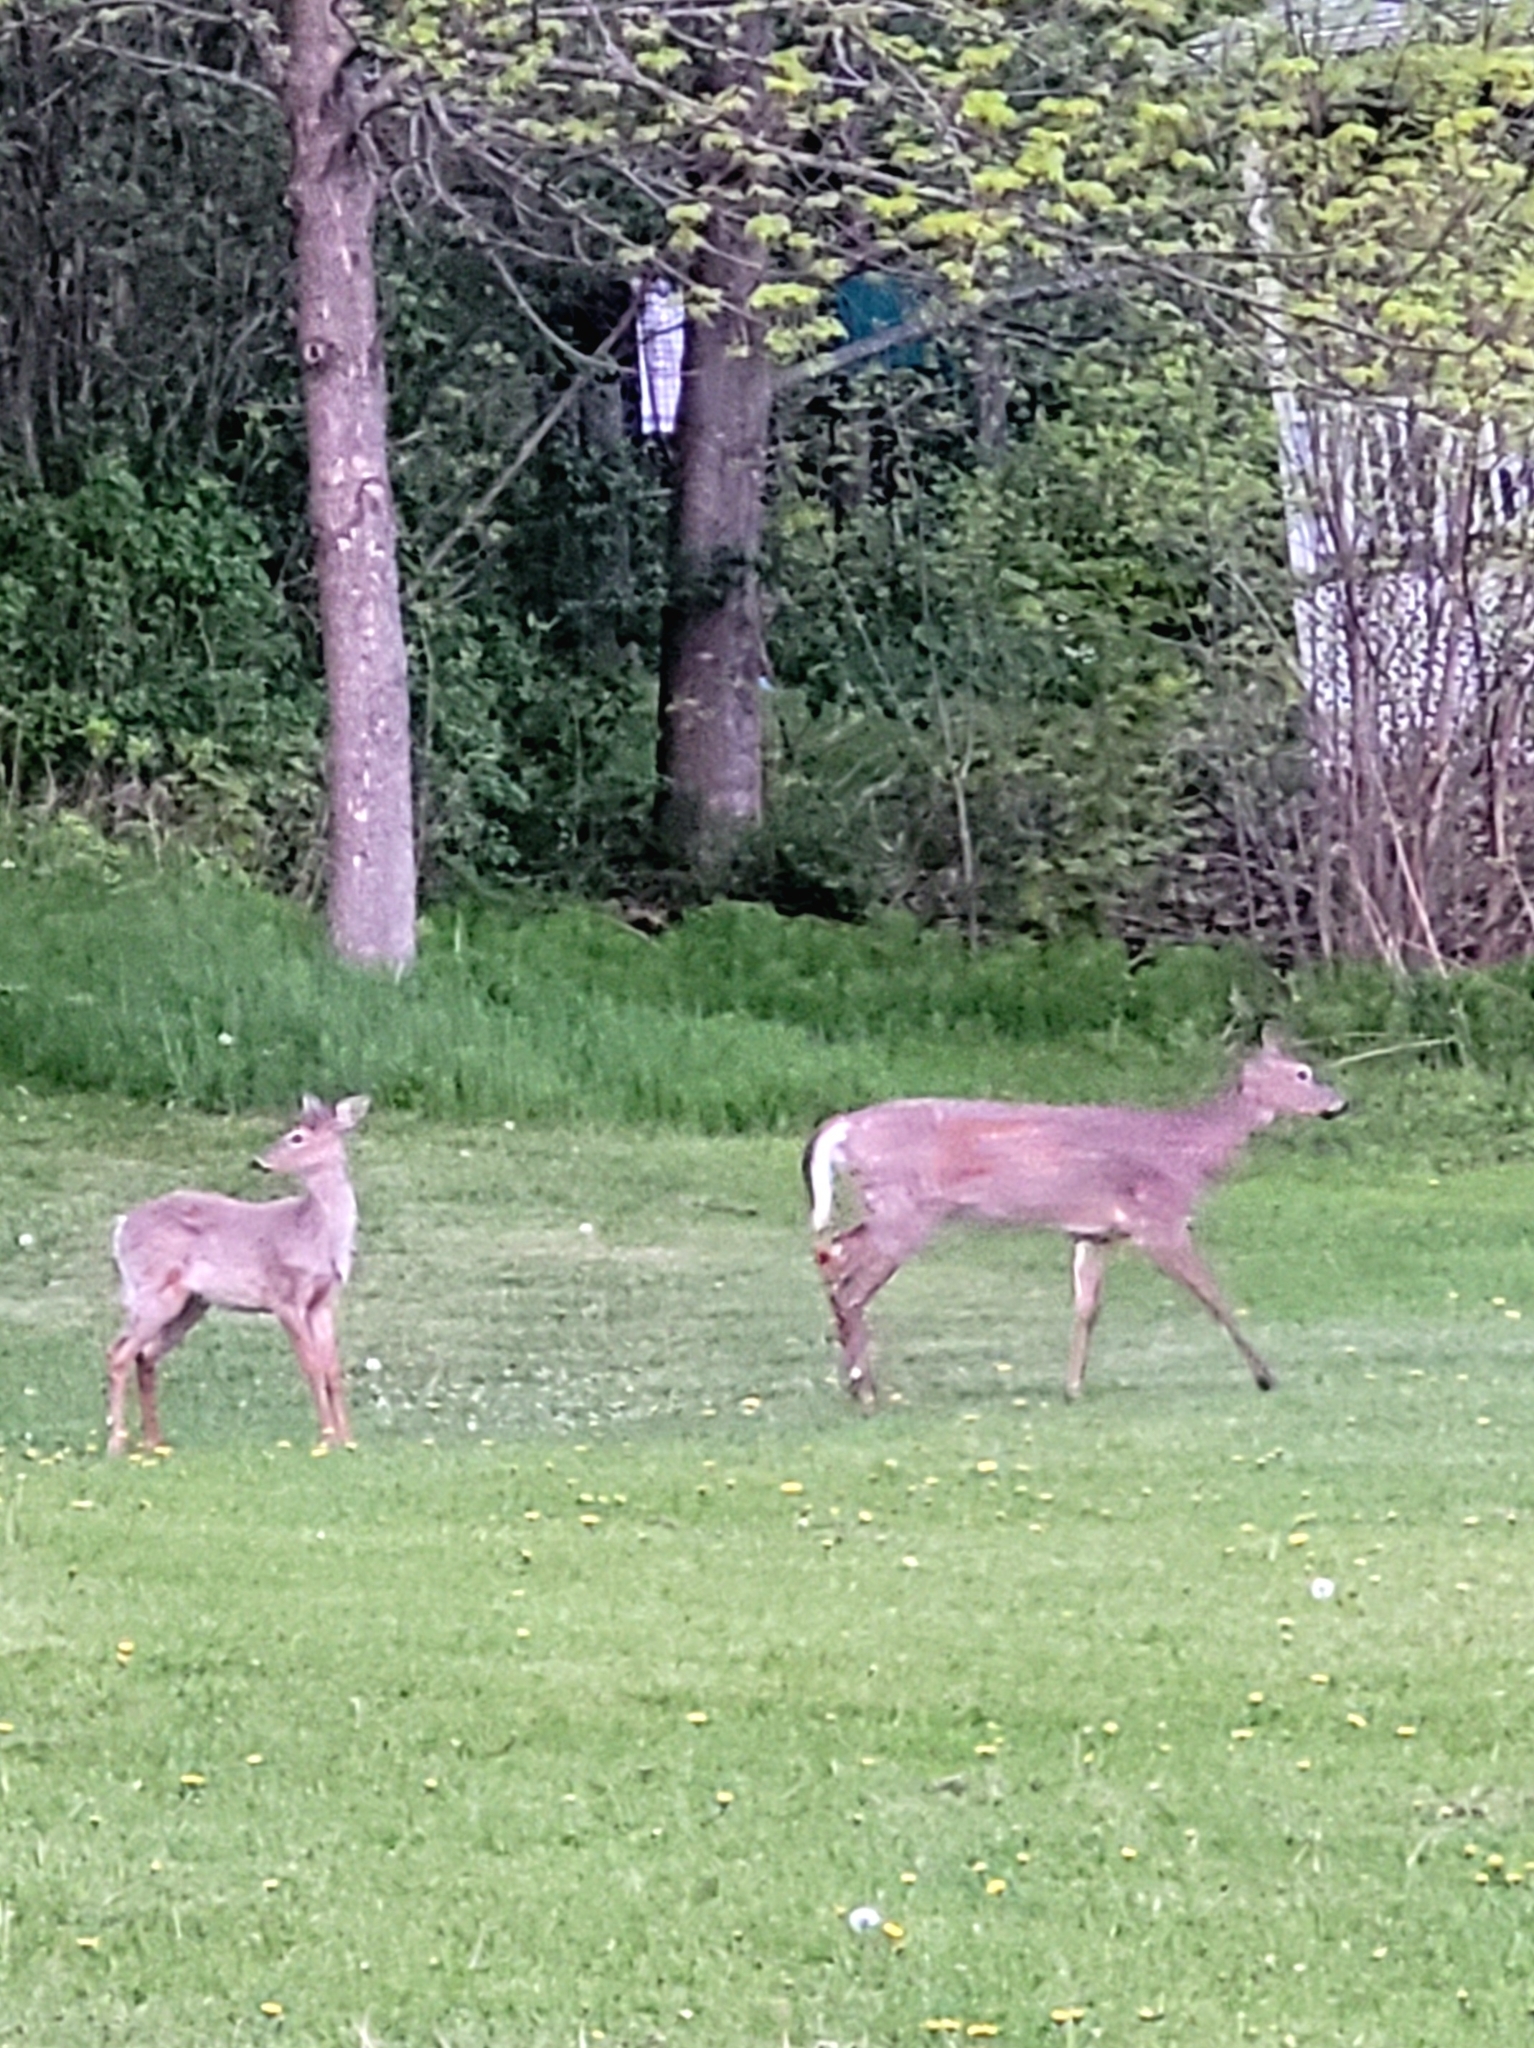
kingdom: Animalia
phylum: Chordata
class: Mammalia
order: Artiodactyla
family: Cervidae
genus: Odocoileus
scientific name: Odocoileus virginianus
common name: White-tailed deer
